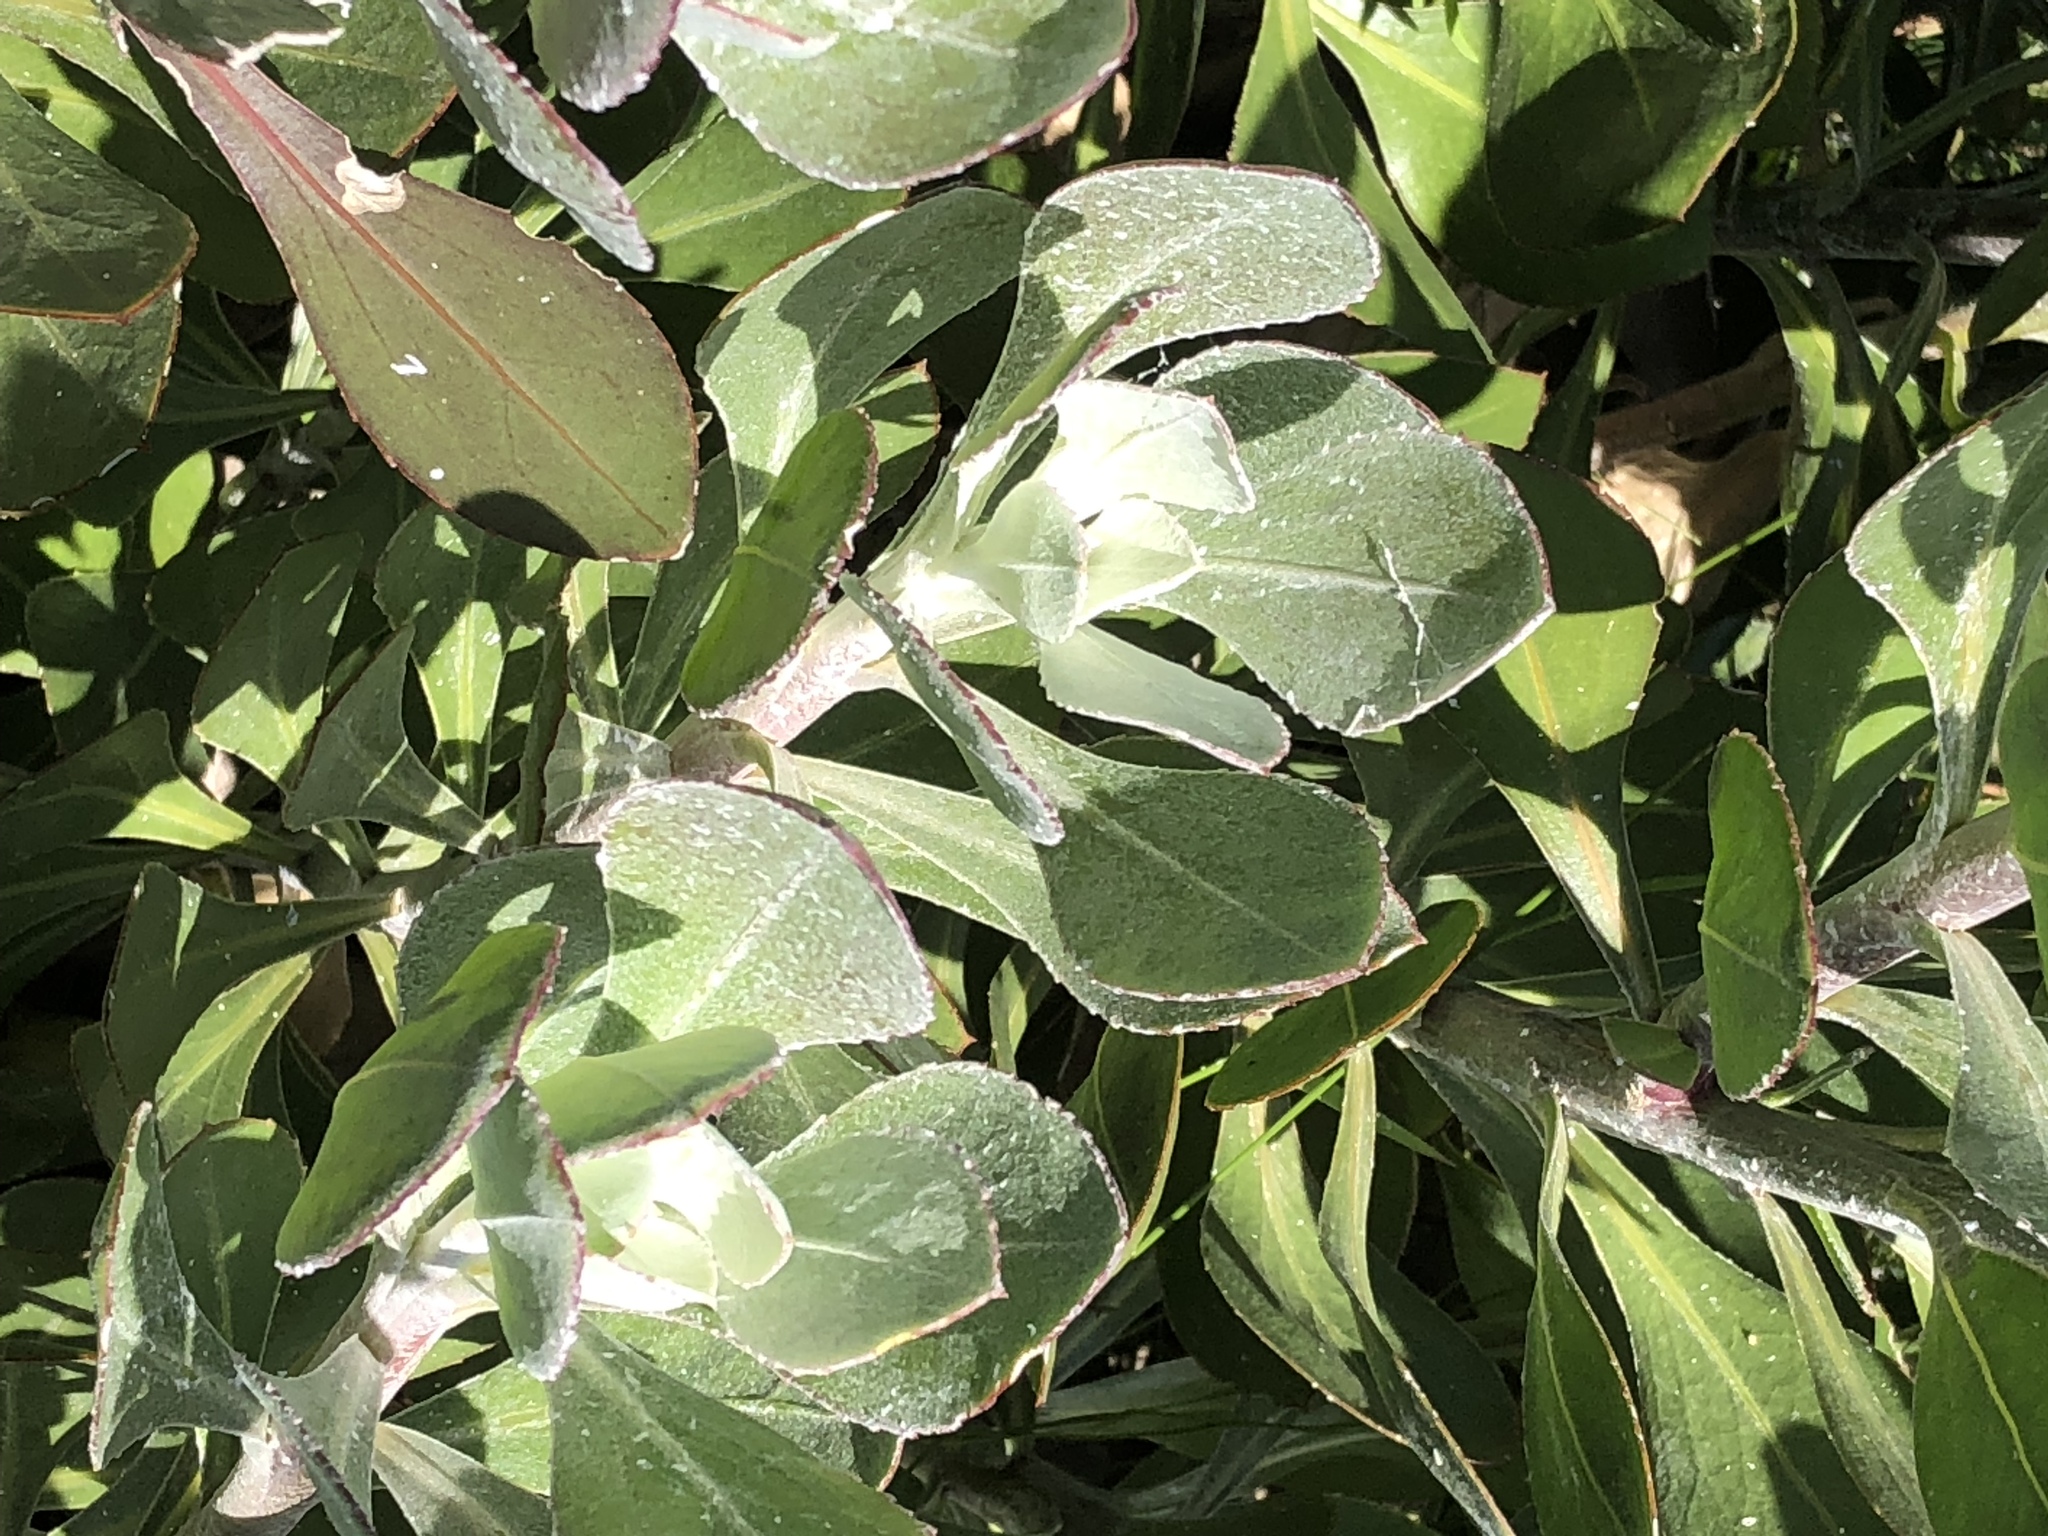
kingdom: Plantae
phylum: Tracheophyta
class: Magnoliopsida
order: Asterales
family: Asteraceae
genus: Osteospermum
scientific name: Osteospermum junceum
